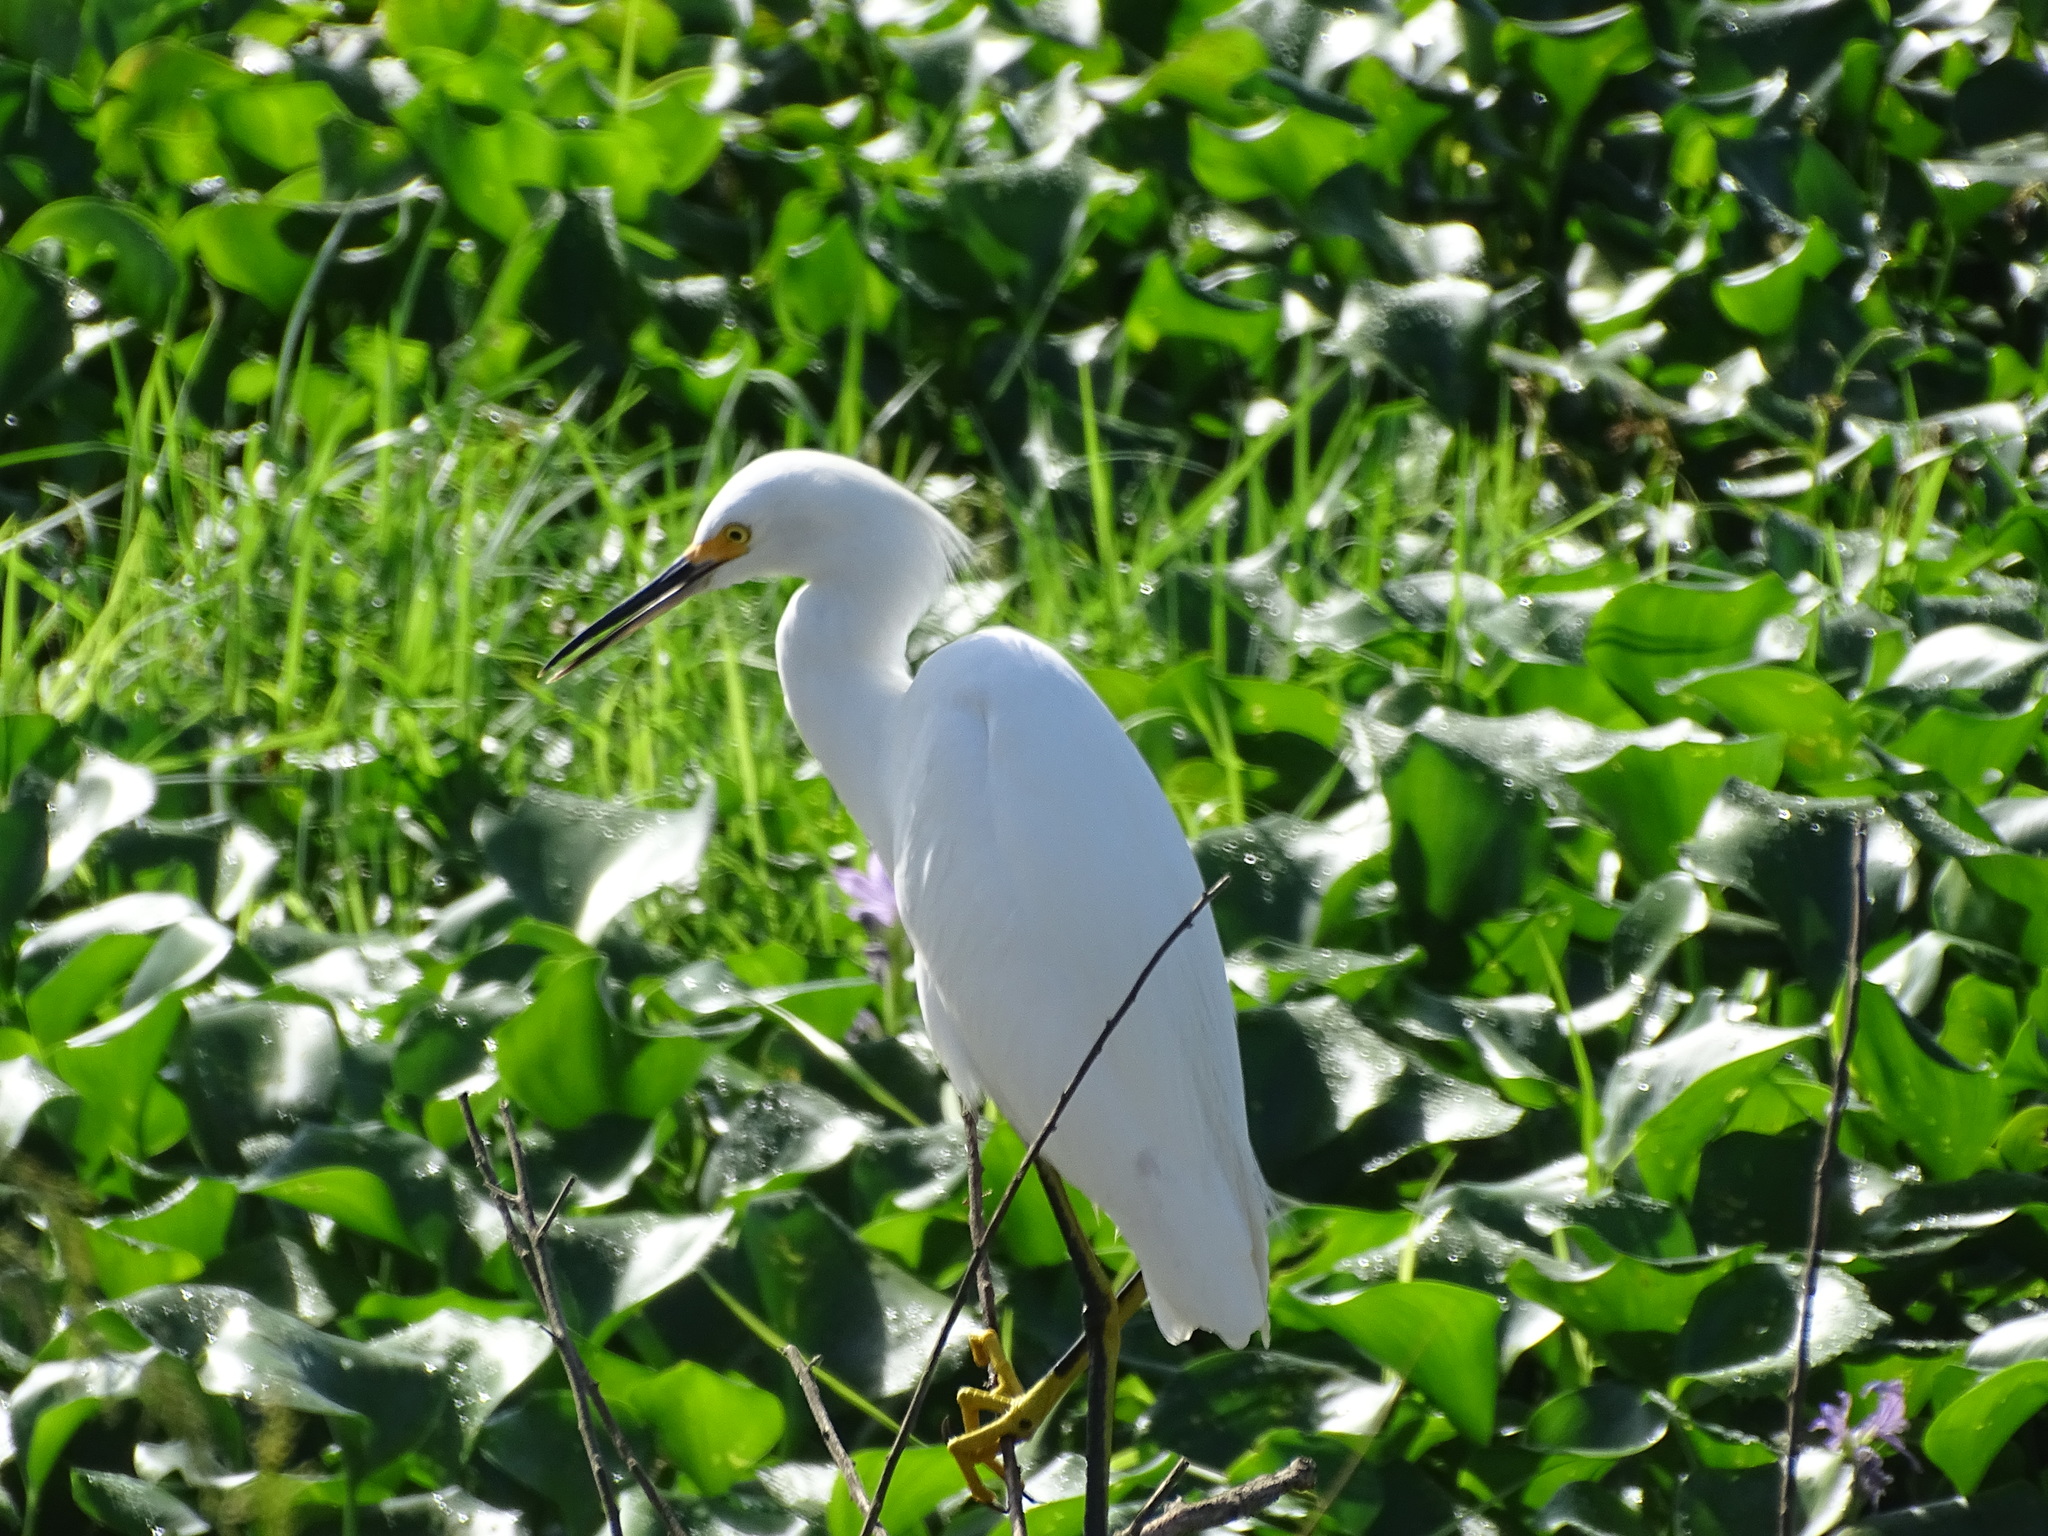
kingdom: Animalia
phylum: Chordata
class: Aves
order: Pelecaniformes
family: Ardeidae
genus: Egretta
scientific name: Egretta thula
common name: Snowy egret
